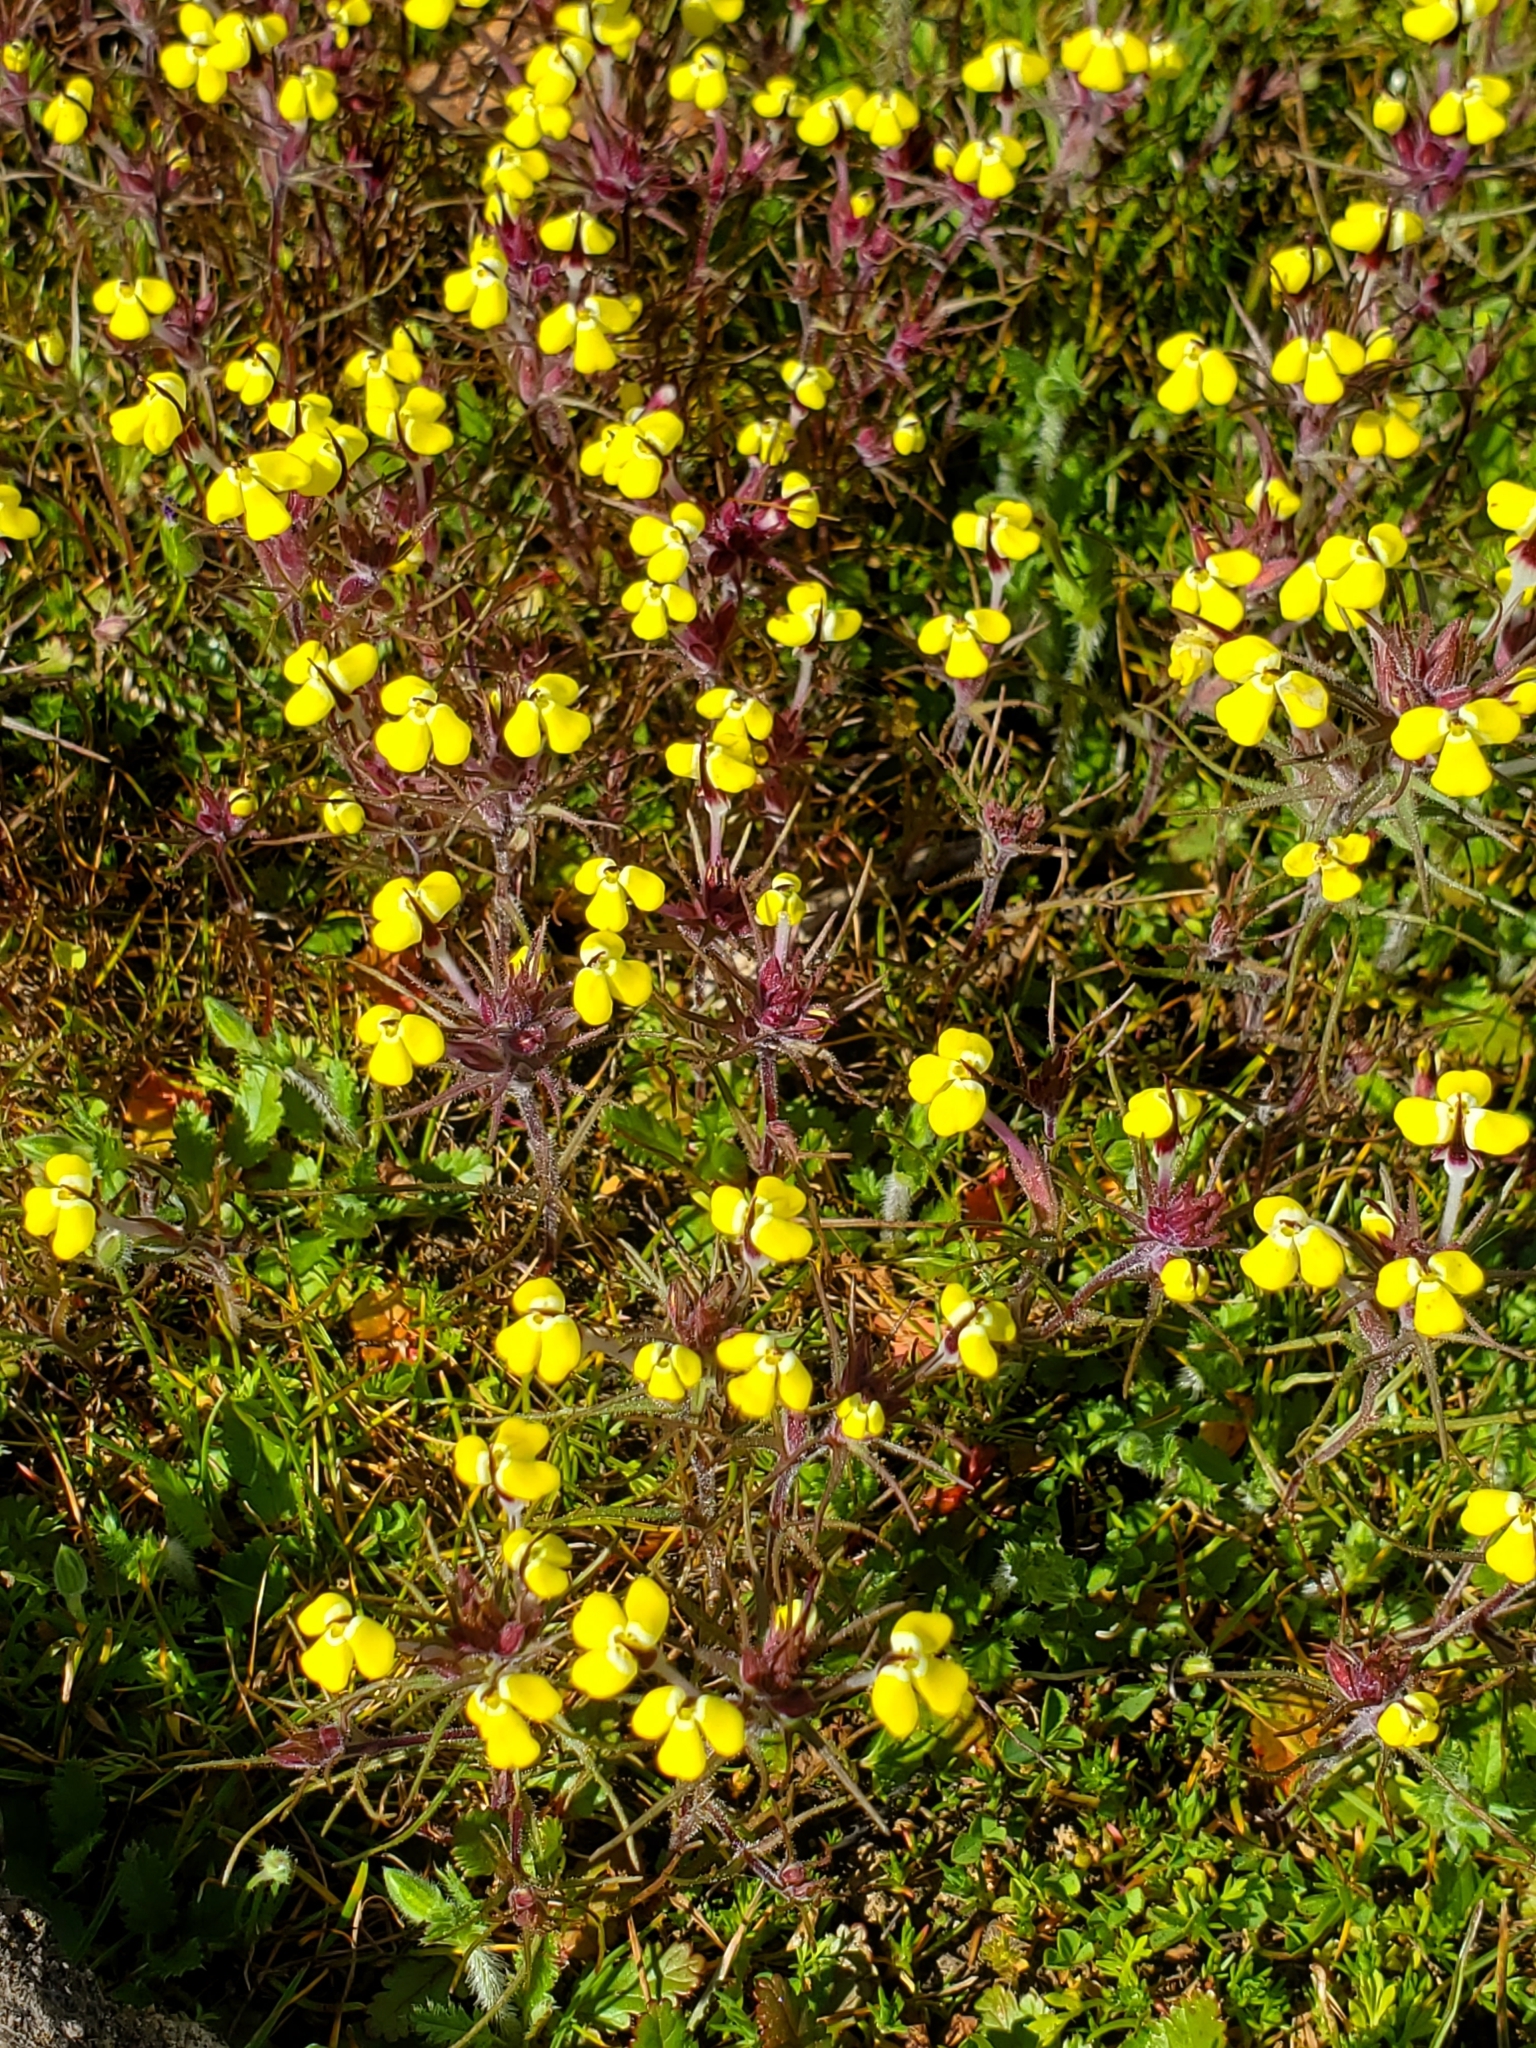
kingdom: Plantae
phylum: Tracheophyta
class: Magnoliopsida
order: Lamiales
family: Orobanchaceae
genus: Triphysaria
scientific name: Triphysaria eriantha
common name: Johnny-tuck
